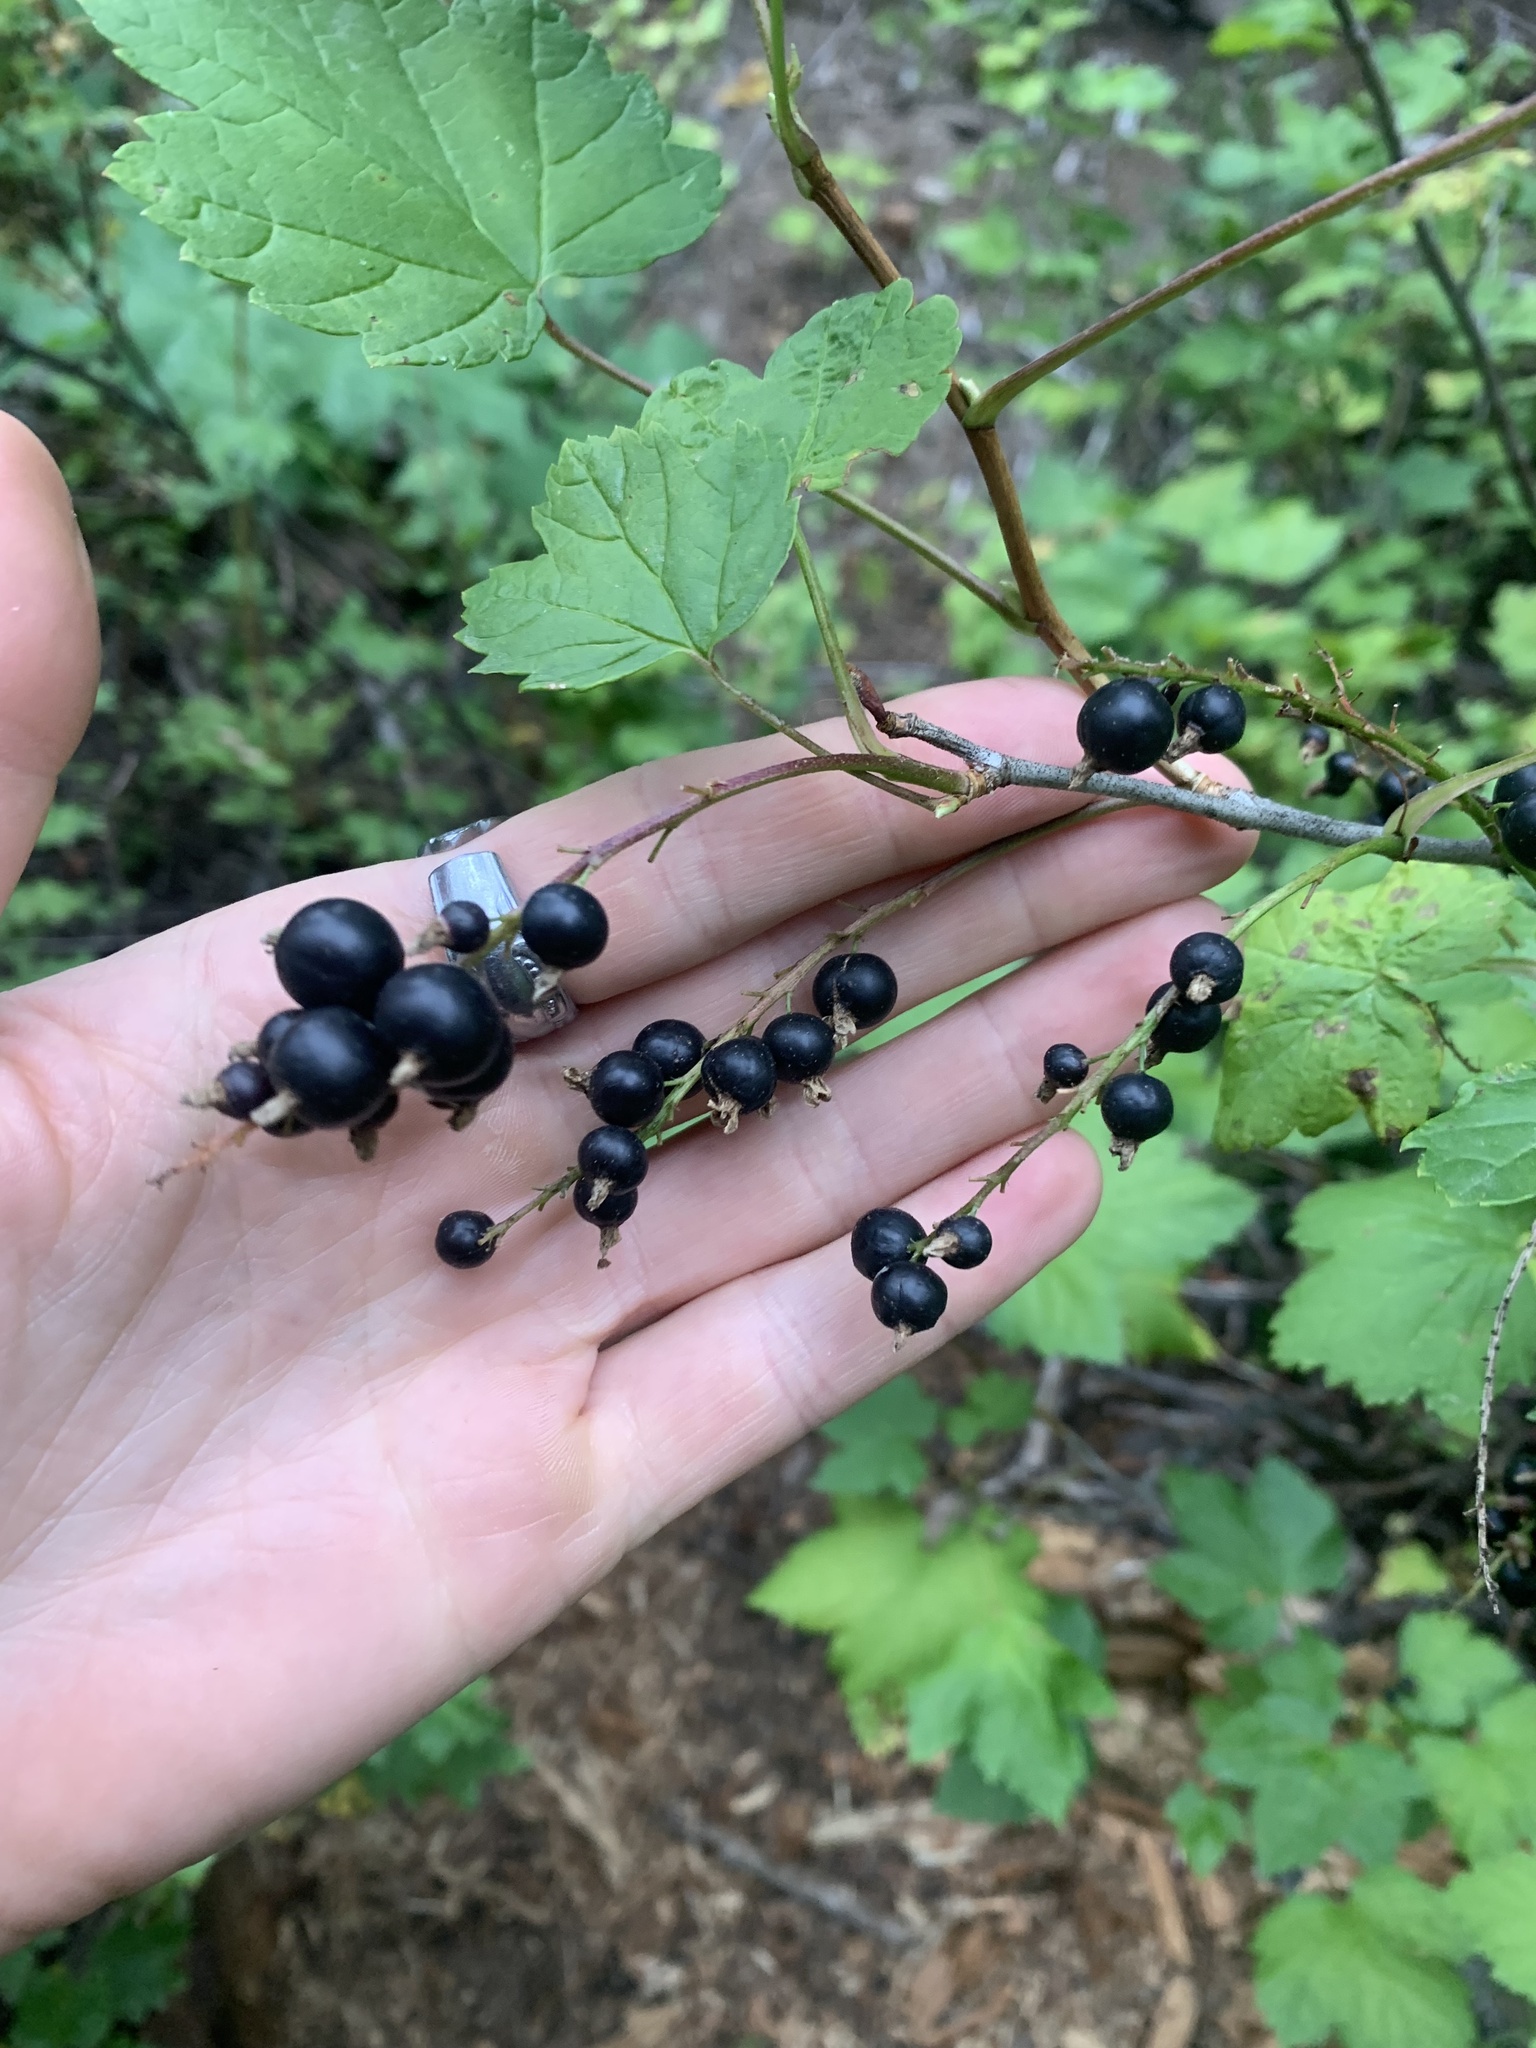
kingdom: Plantae
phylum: Tracheophyta
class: Magnoliopsida
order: Saxifragales
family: Grossulariaceae
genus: Ribes
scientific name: Ribes lacustre
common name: Black gooseberry
